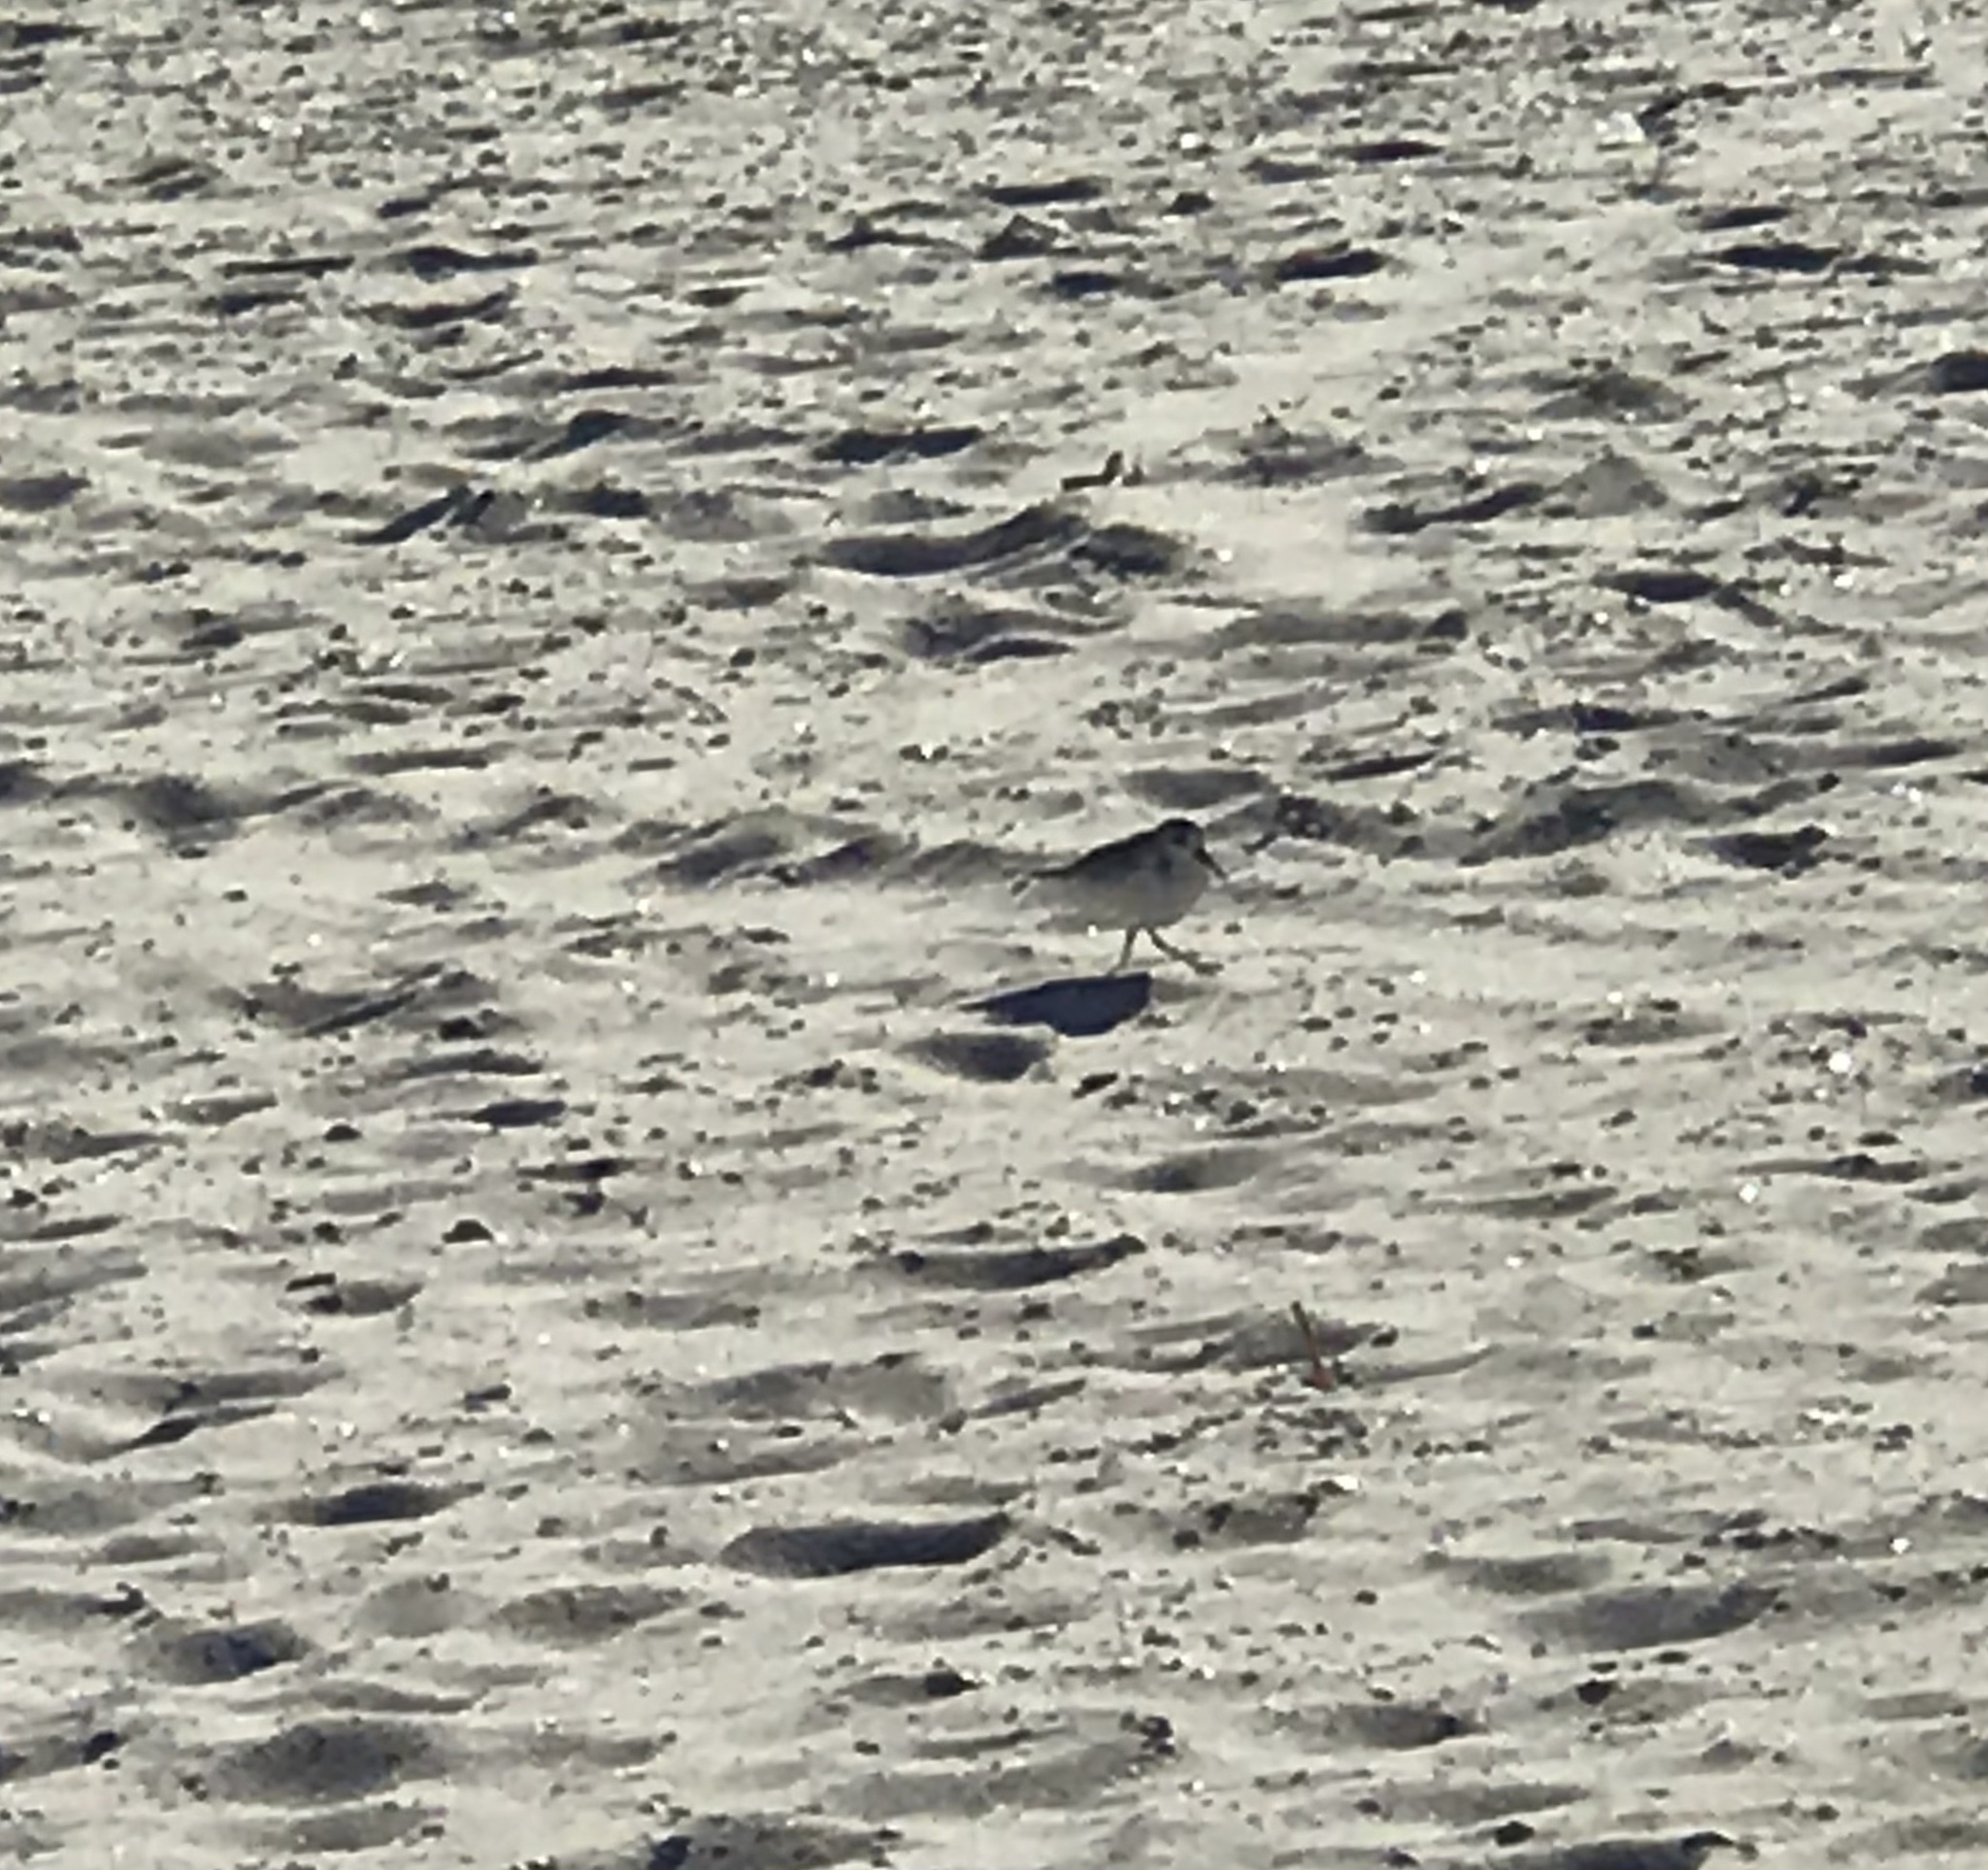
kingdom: Animalia
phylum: Chordata
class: Aves
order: Charadriiformes
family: Scolopacidae
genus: Calidris
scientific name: Calidris alba
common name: Sanderling
